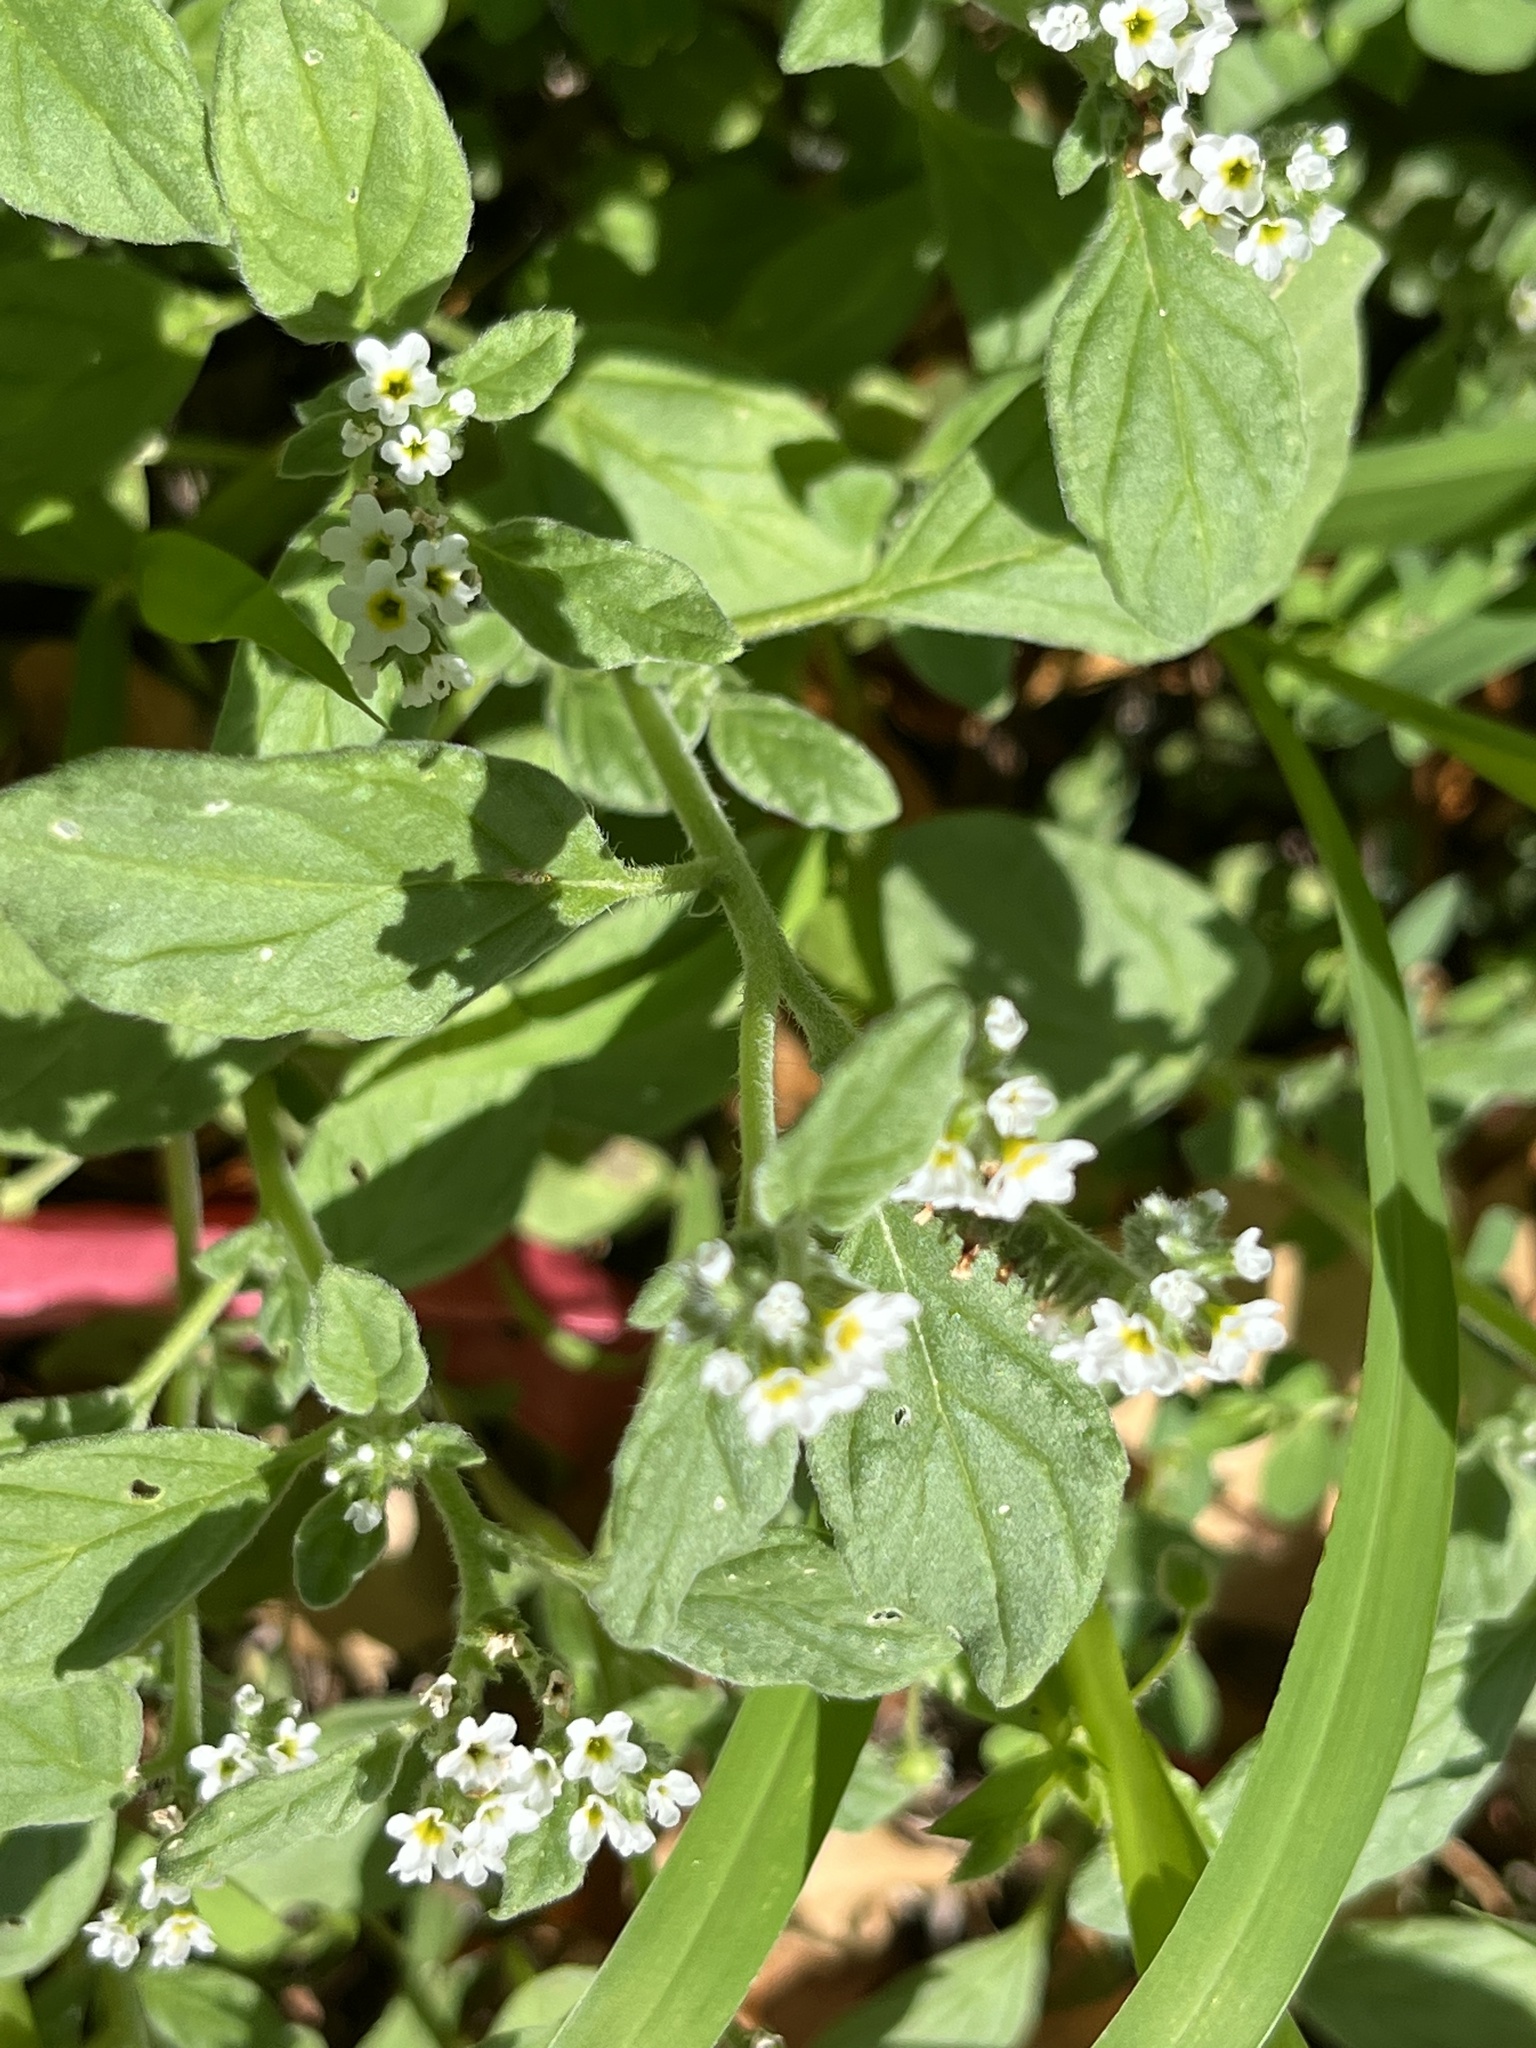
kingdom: Plantae
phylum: Tracheophyta
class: Magnoliopsida
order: Boraginales
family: Heliotropiaceae
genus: Heliotropium
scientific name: Heliotropium europaeum
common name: European heliotrope
